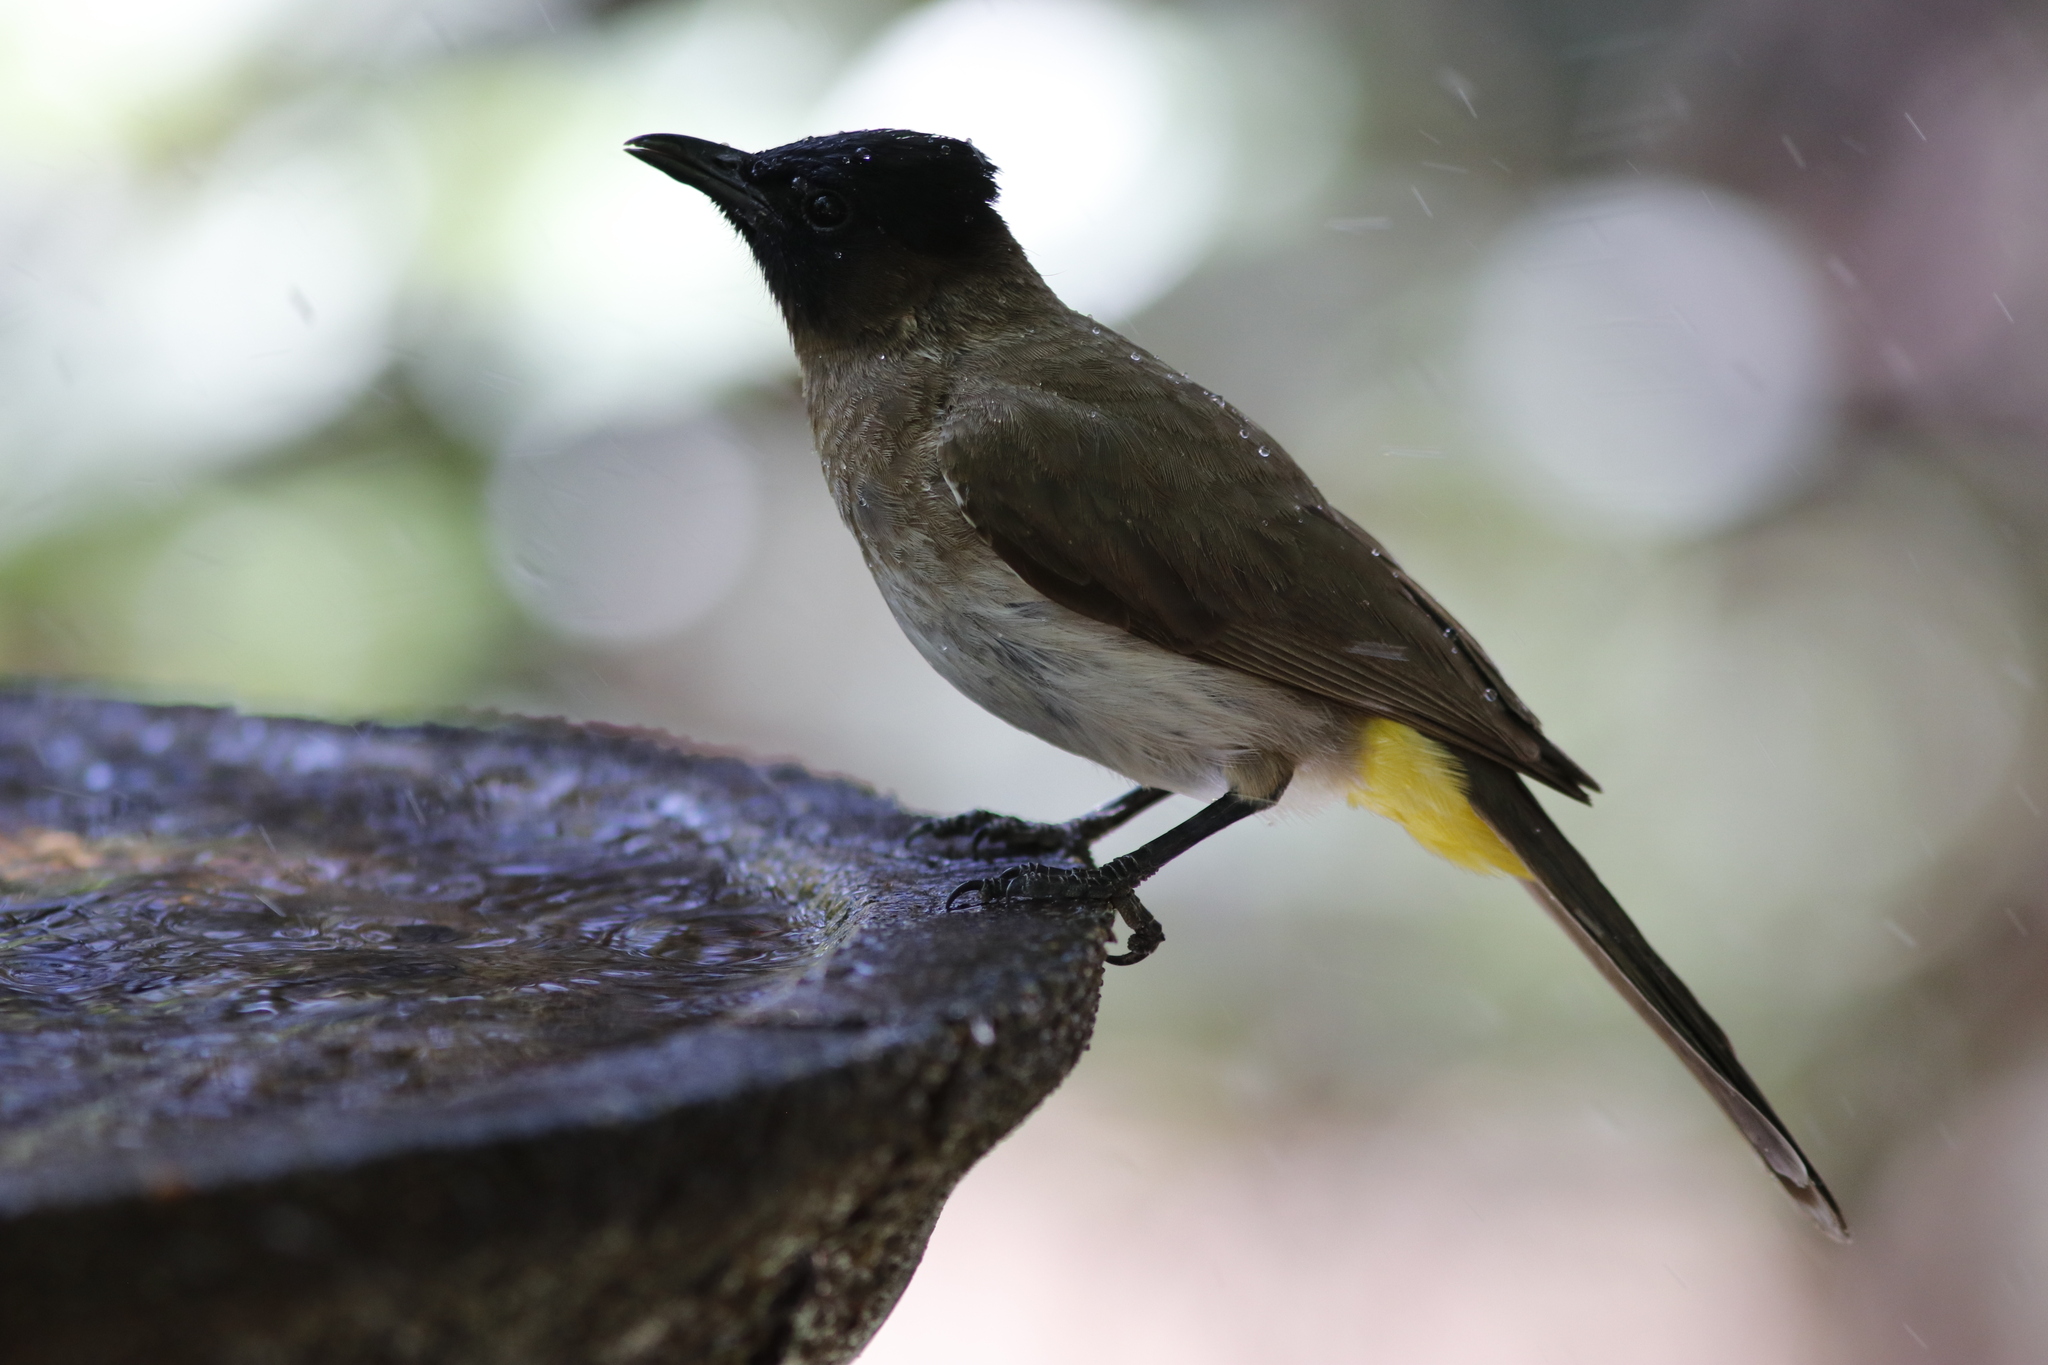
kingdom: Animalia
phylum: Chordata
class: Aves
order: Passeriformes
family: Pycnonotidae
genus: Pycnonotus
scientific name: Pycnonotus barbatus
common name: Common bulbul
